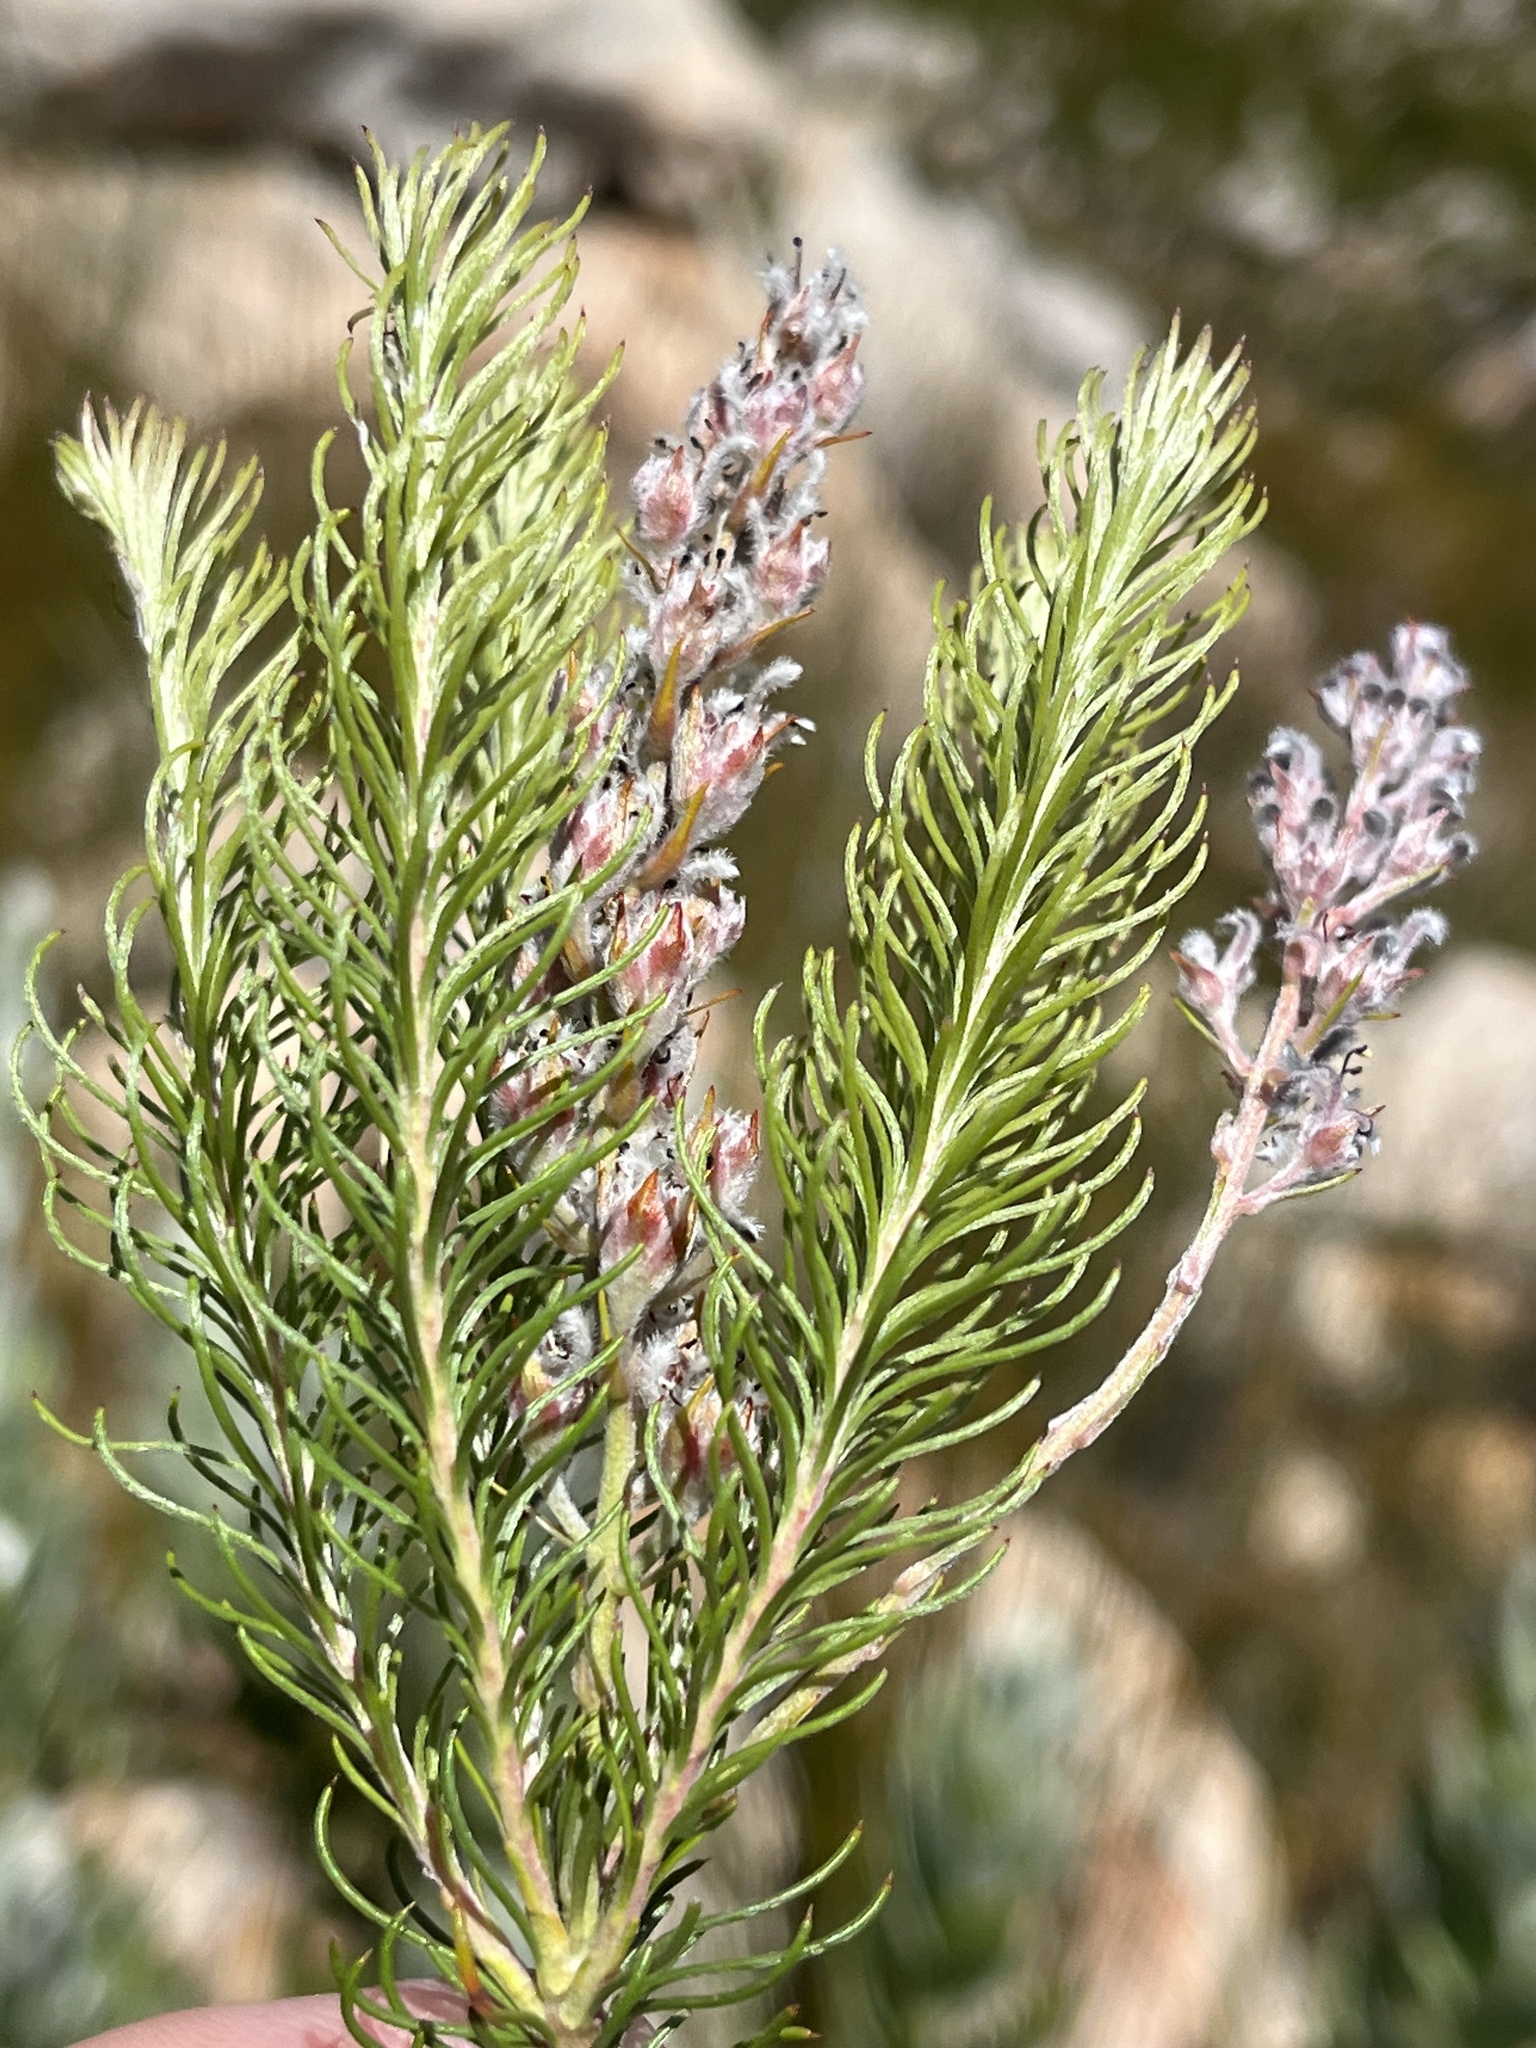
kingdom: Plantae
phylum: Tracheophyta
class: Magnoliopsida
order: Proteales
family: Proteaceae
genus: Spatalla
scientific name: Spatalla propinqua
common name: Lax spoon
